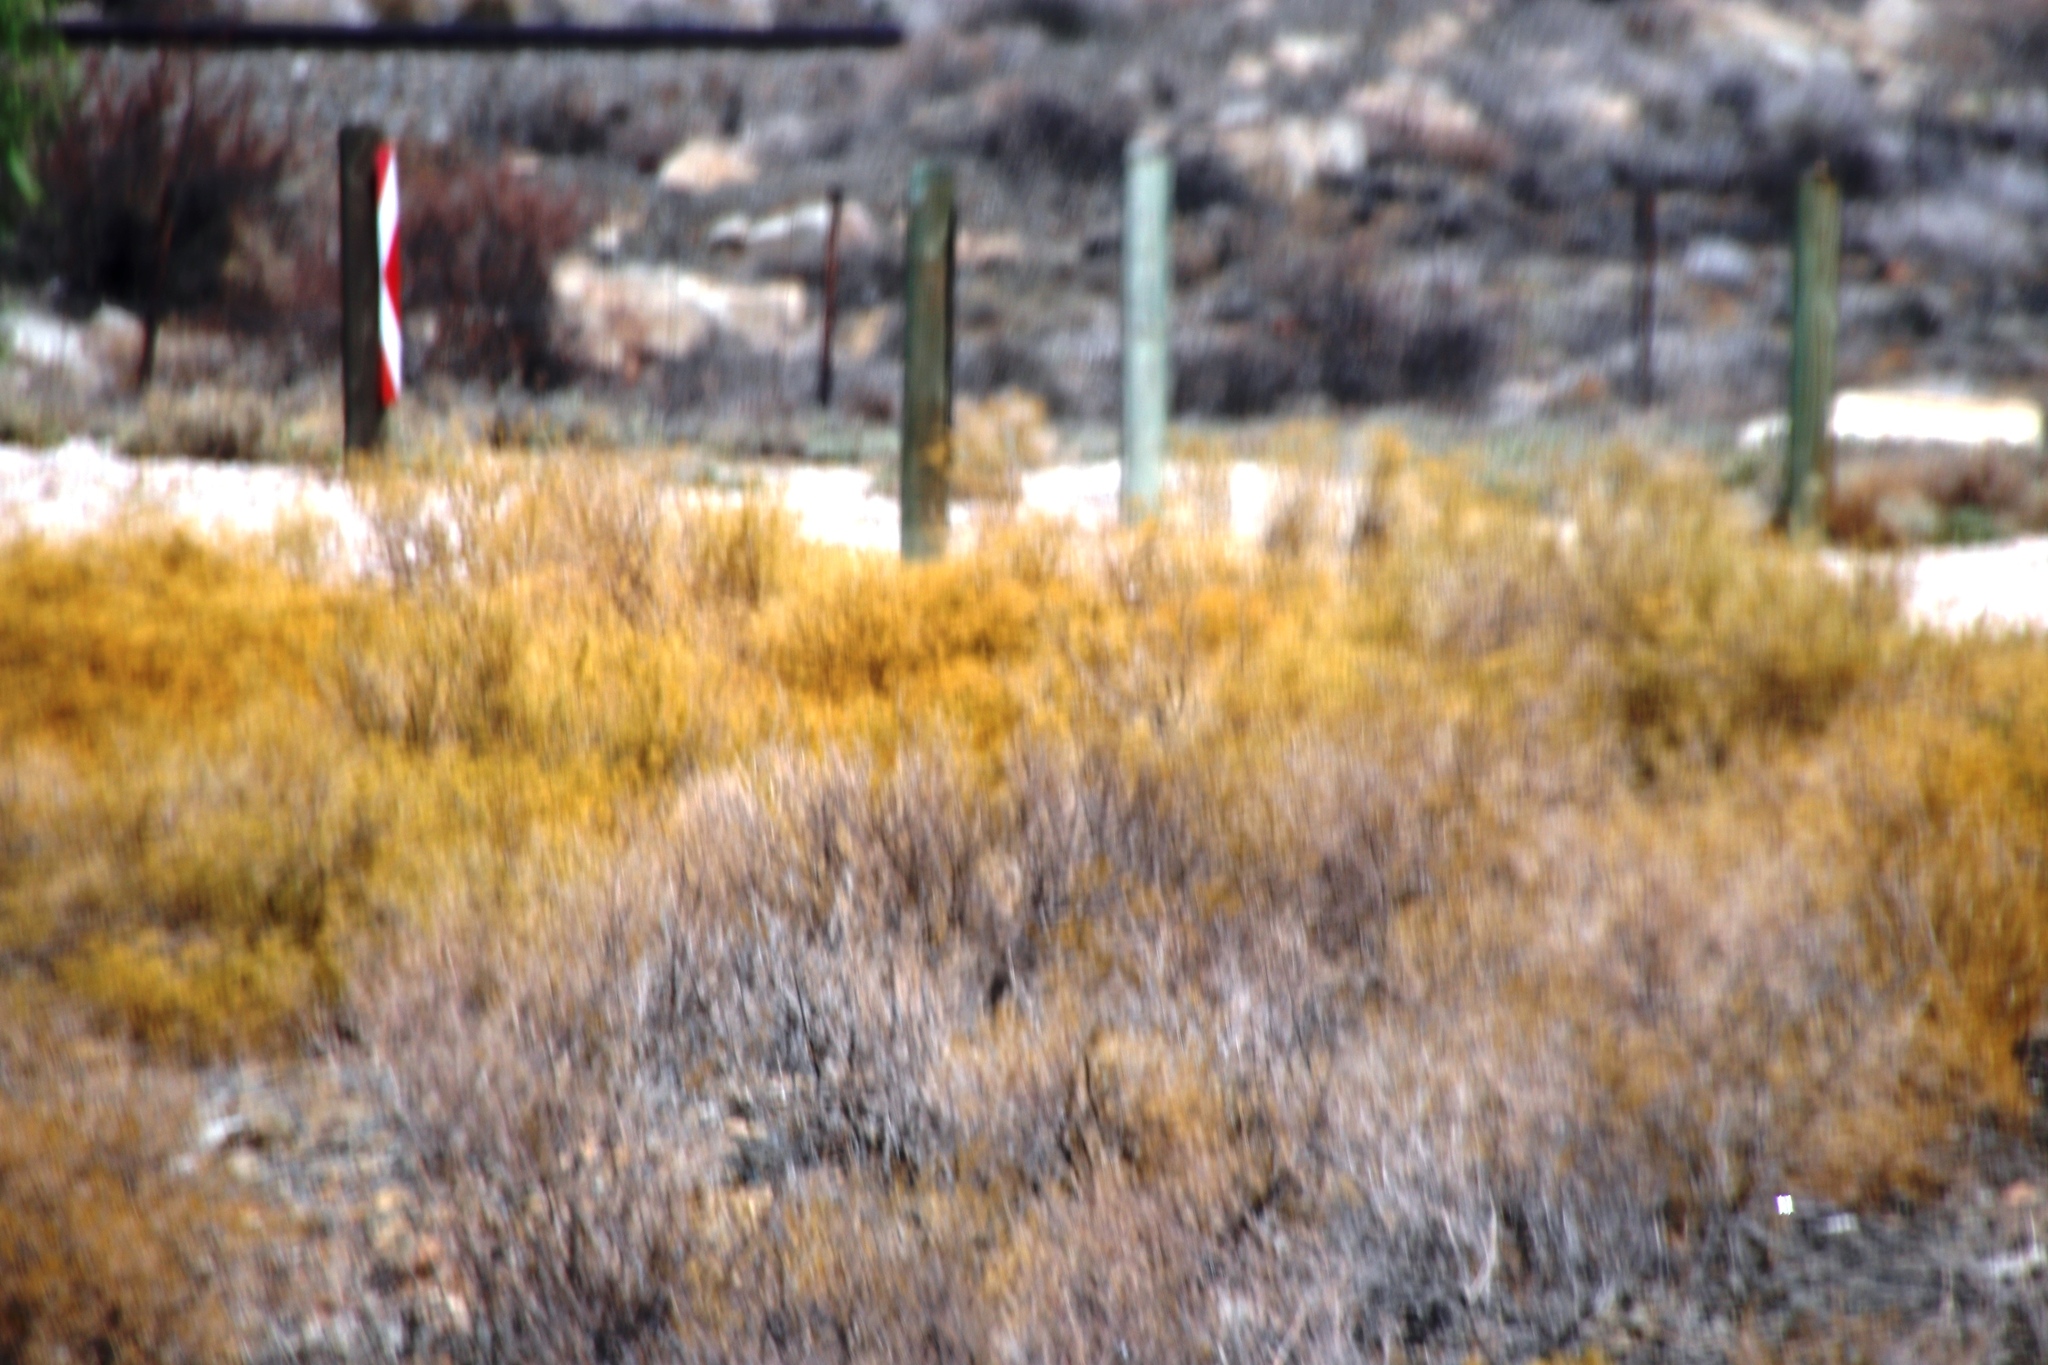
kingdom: Plantae
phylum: Tracheophyta
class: Magnoliopsida
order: Caryophyllales
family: Aizoaceae
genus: Aizoon
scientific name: Aizoon africanum
